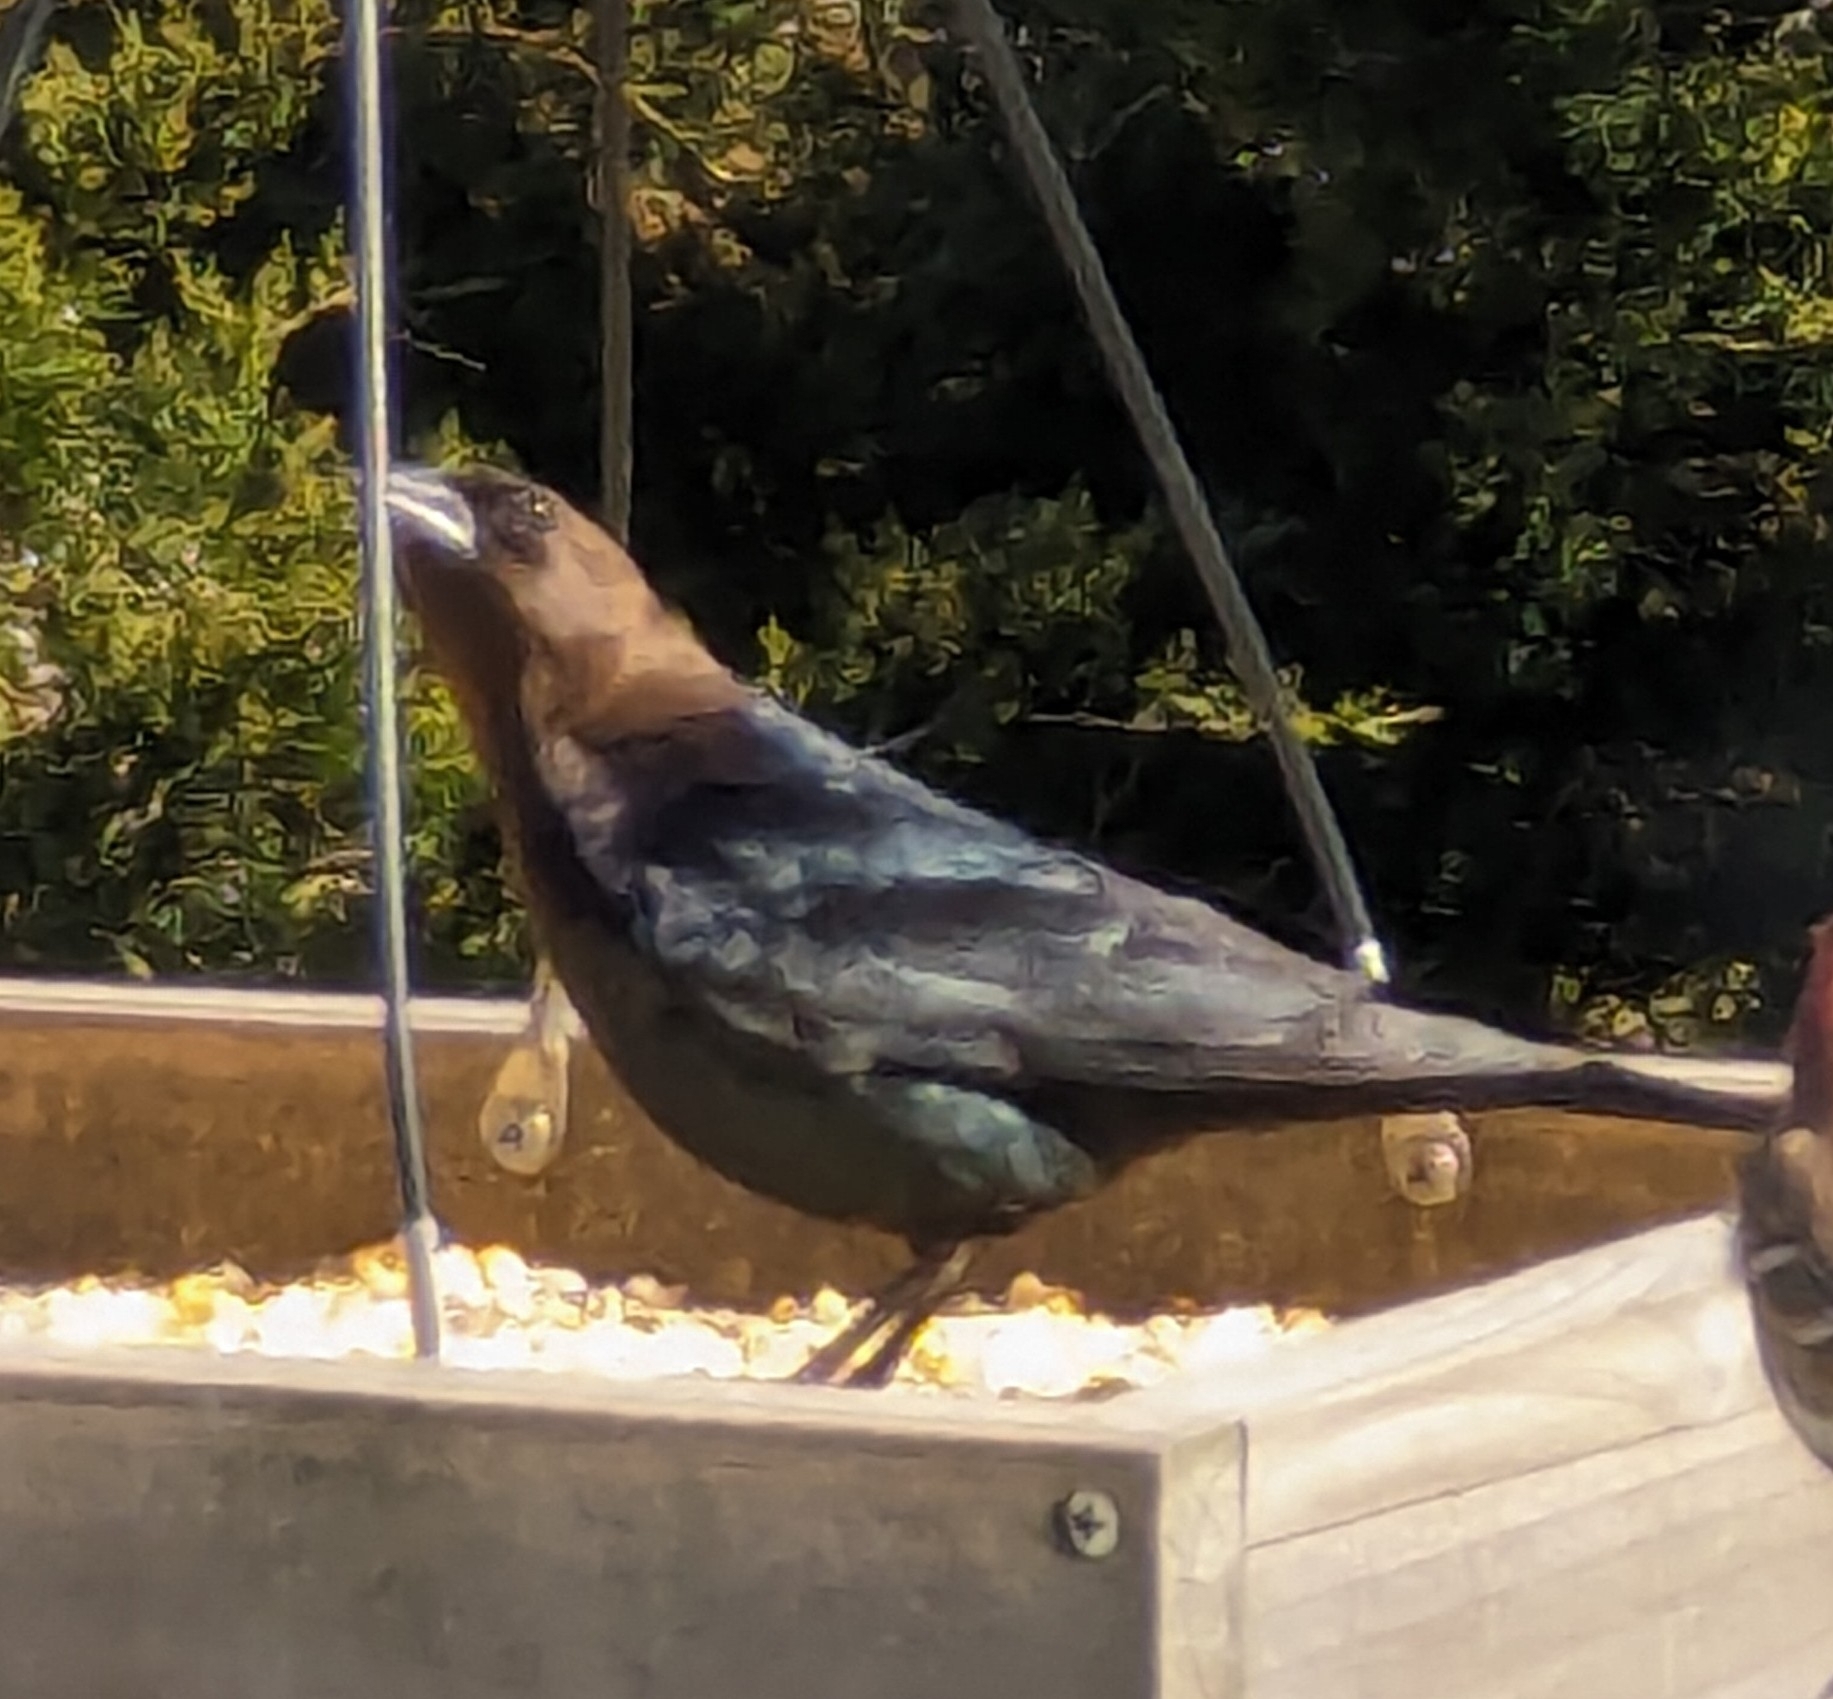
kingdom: Animalia
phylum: Chordata
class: Aves
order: Passeriformes
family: Icteridae
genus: Molothrus
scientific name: Molothrus ater
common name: Brown-headed cowbird
